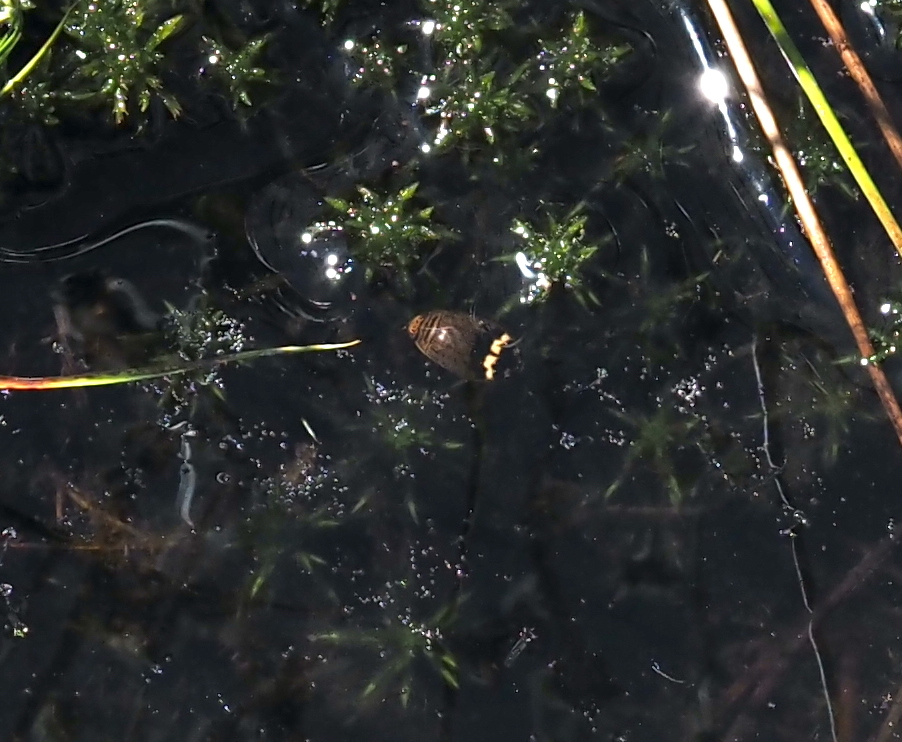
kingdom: Animalia
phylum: Arthropoda
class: Insecta
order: Coleoptera
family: Dytiscidae
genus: Acilius
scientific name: Acilius mediatus
